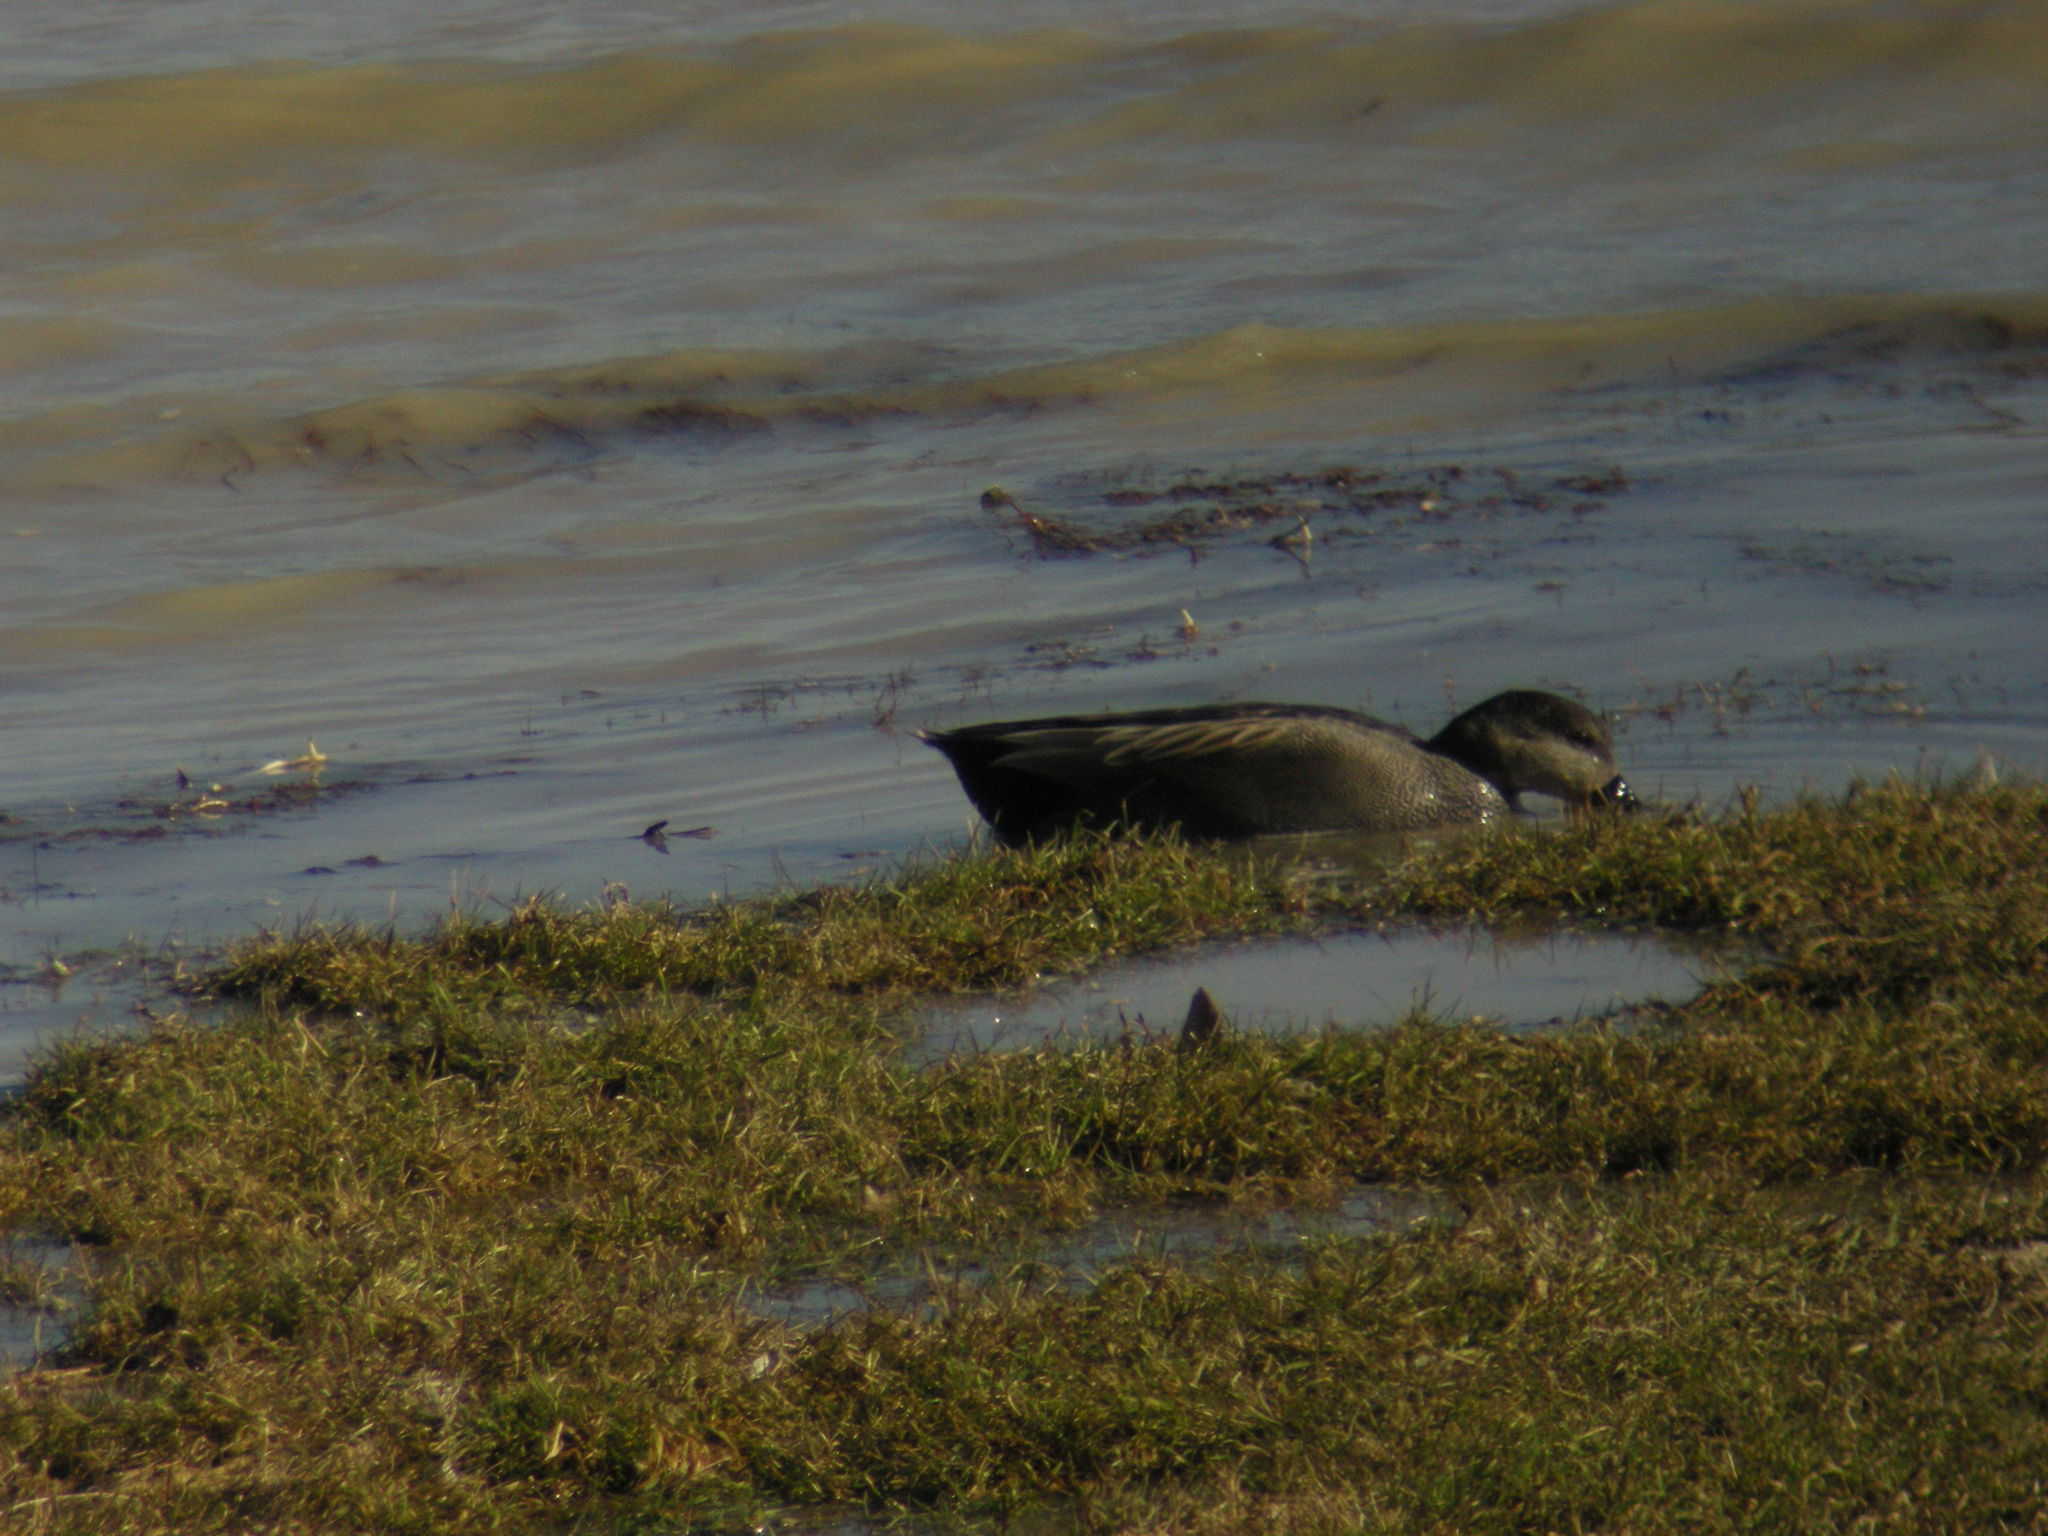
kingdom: Animalia
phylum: Chordata
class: Aves
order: Anseriformes
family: Anatidae
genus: Mareca
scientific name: Mareca strepera
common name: Gadwall
